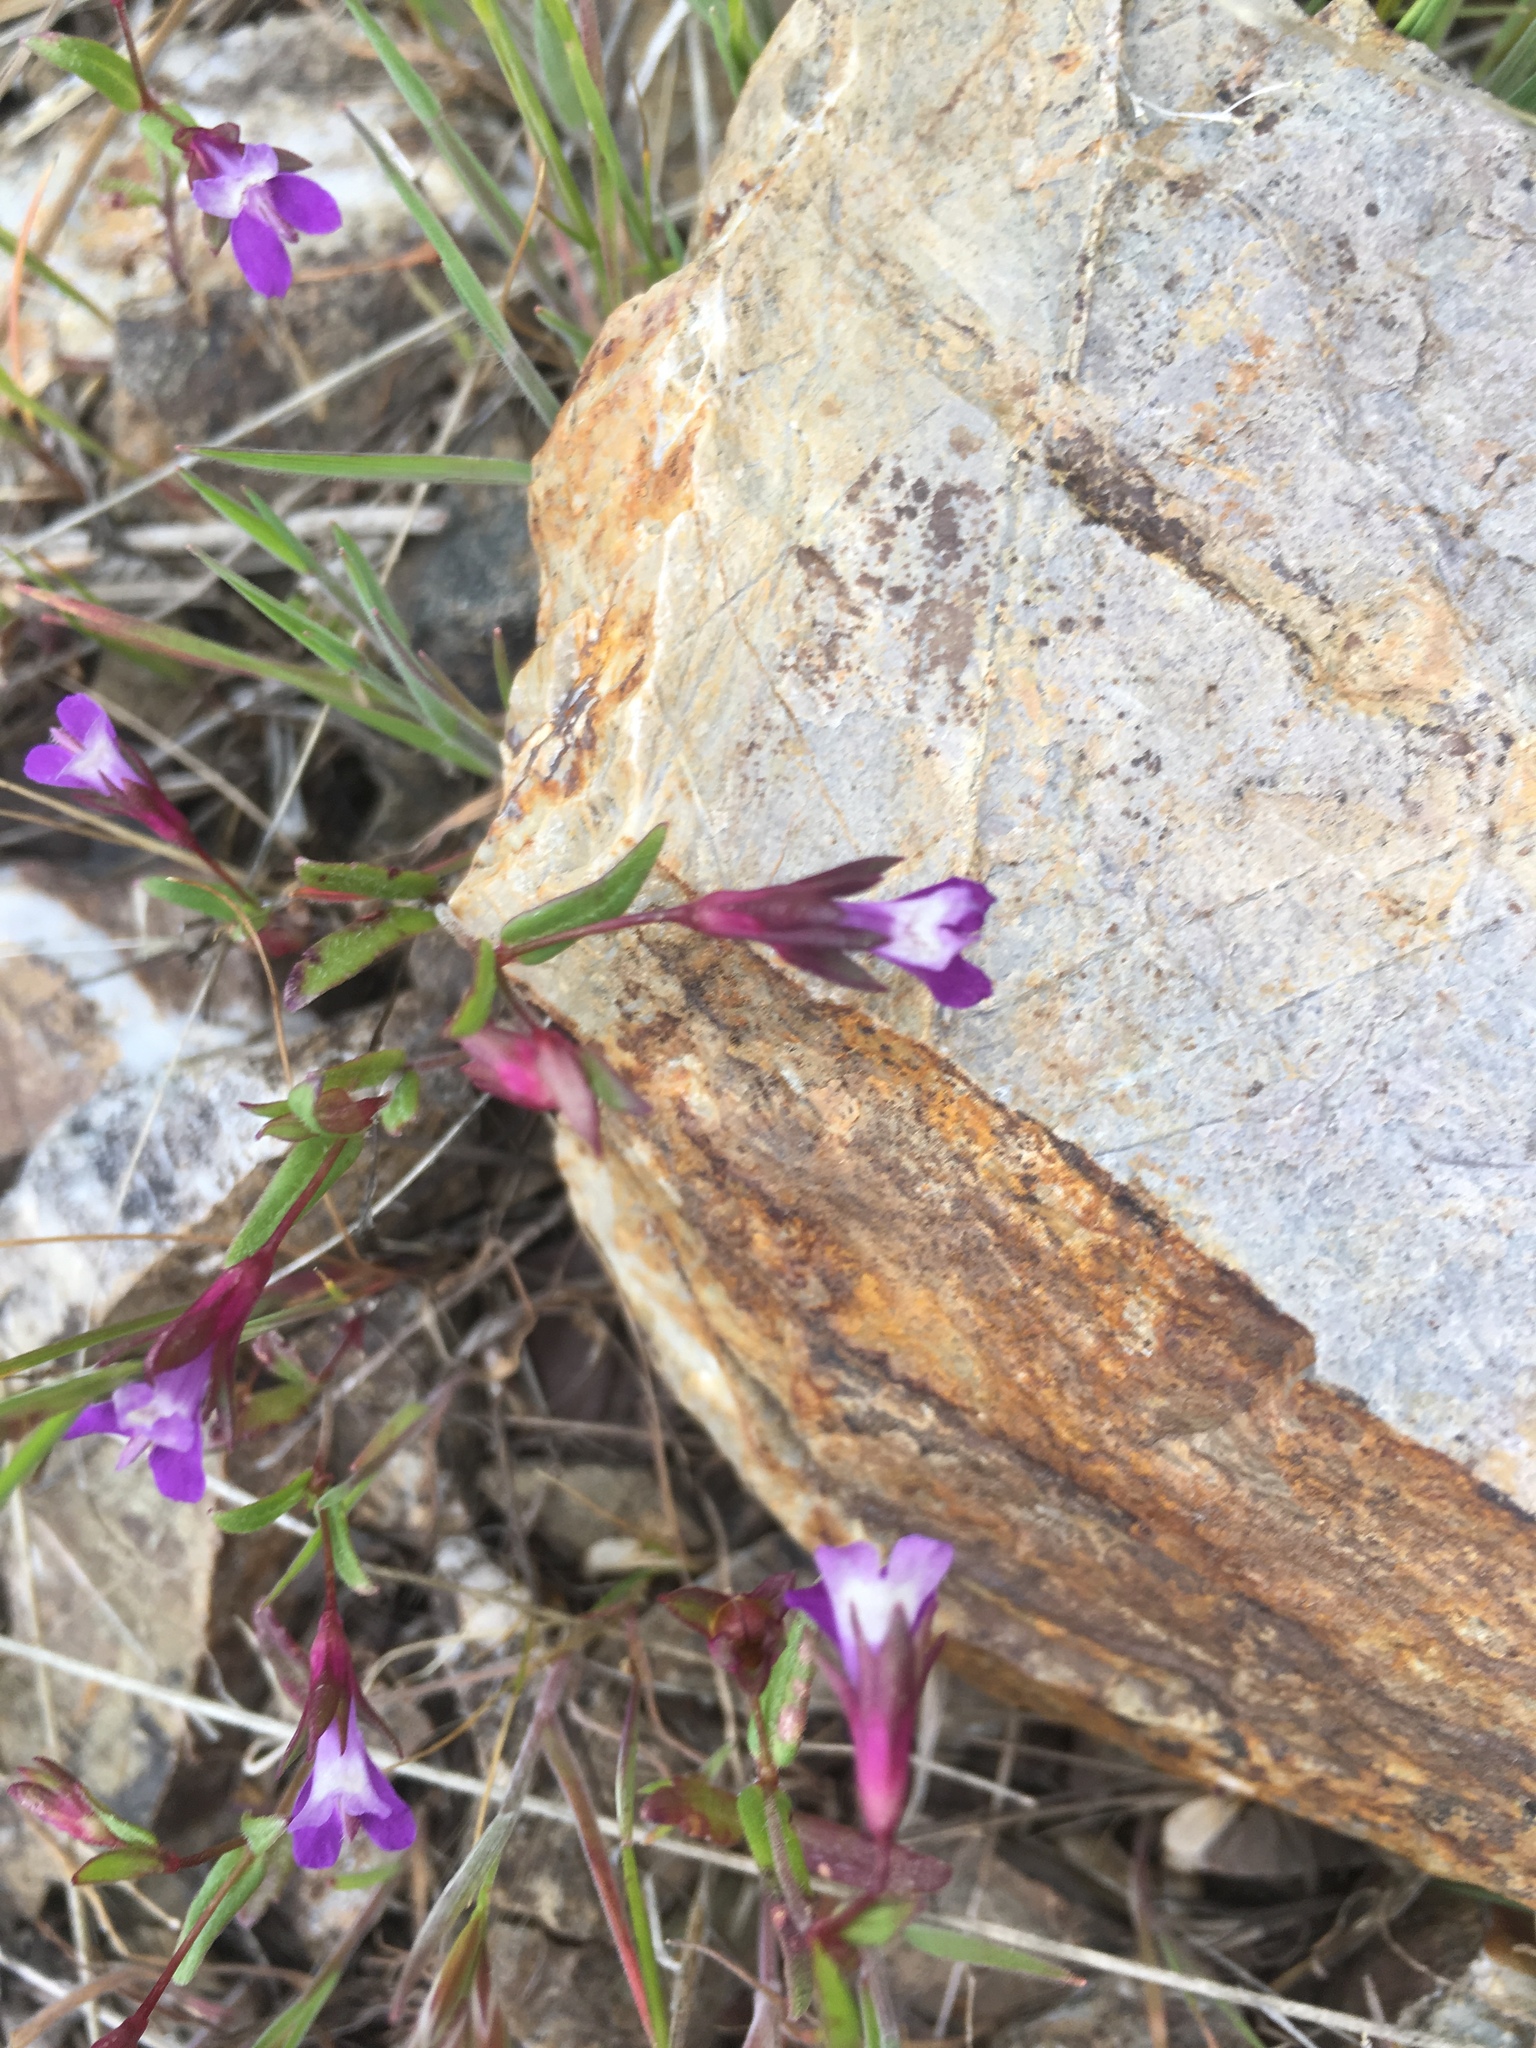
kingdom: Plantae
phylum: Tracheophyta
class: Magnoliopsida
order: Lamiales
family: Plantaginaceae
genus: Collinsia
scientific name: Collinsia sparsiflora
